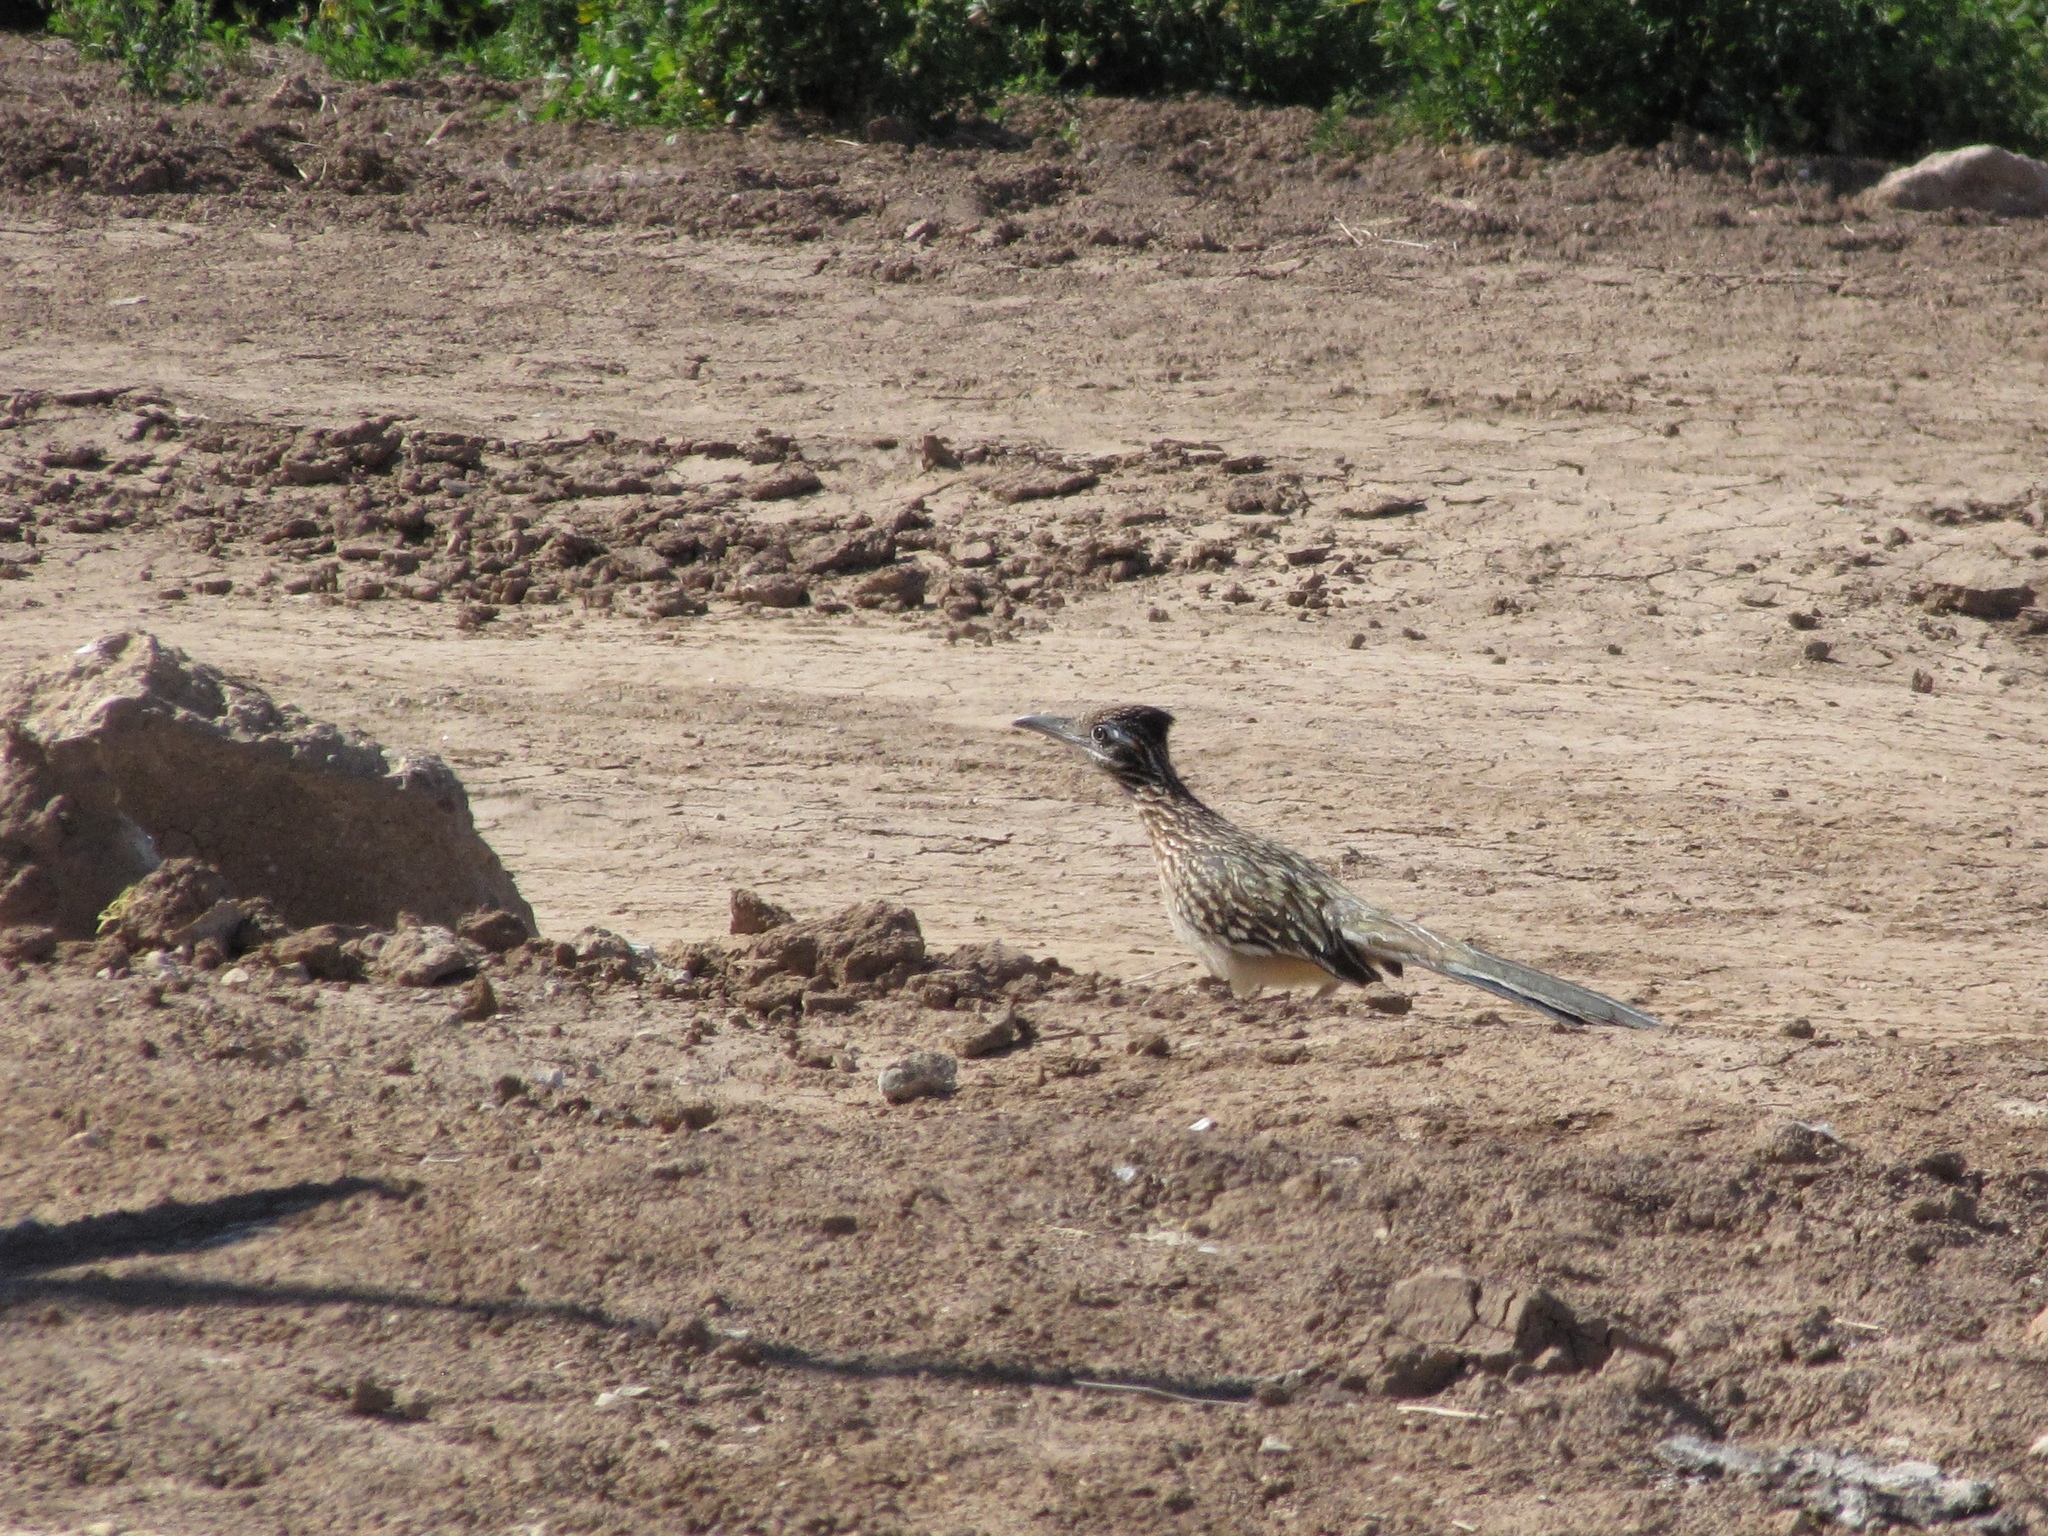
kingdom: Animalia
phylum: Chordata
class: Aves
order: Cuculiformes
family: Cuculidae
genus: Geococcyx
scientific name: Geococcyx californianus
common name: Greater roadrunner
